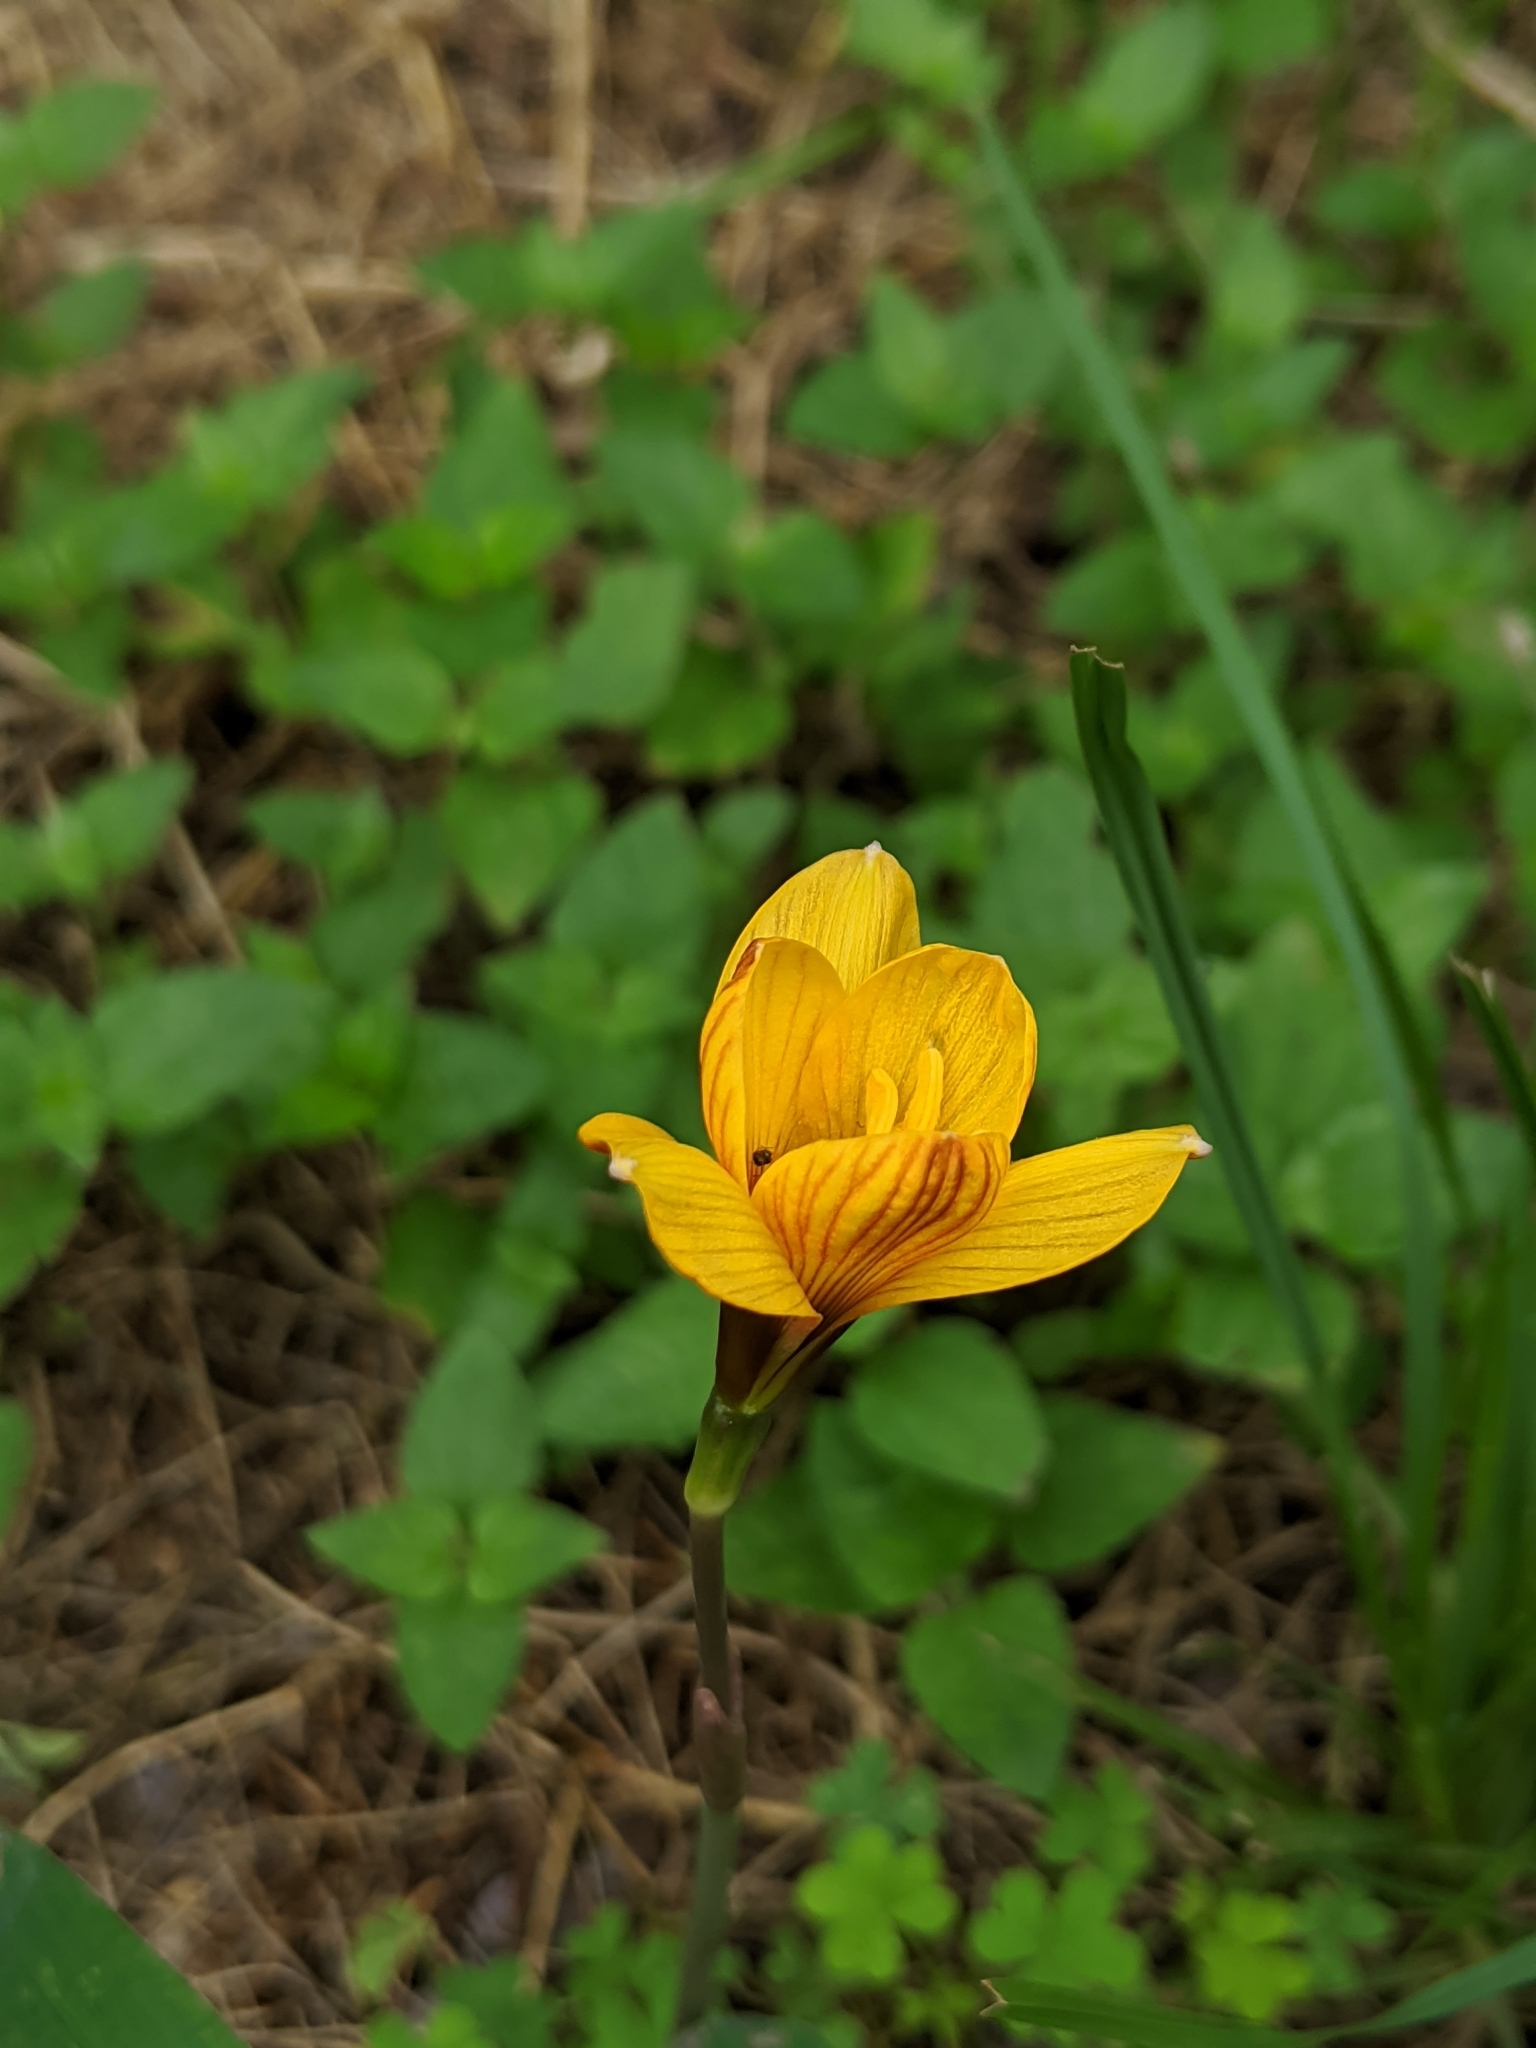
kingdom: Plantae
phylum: Tracheophyta
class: Liliopsida
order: Asparagales
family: Amaryllidaceae
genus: Zephyranthes
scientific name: Zephyranthes tubispatha
